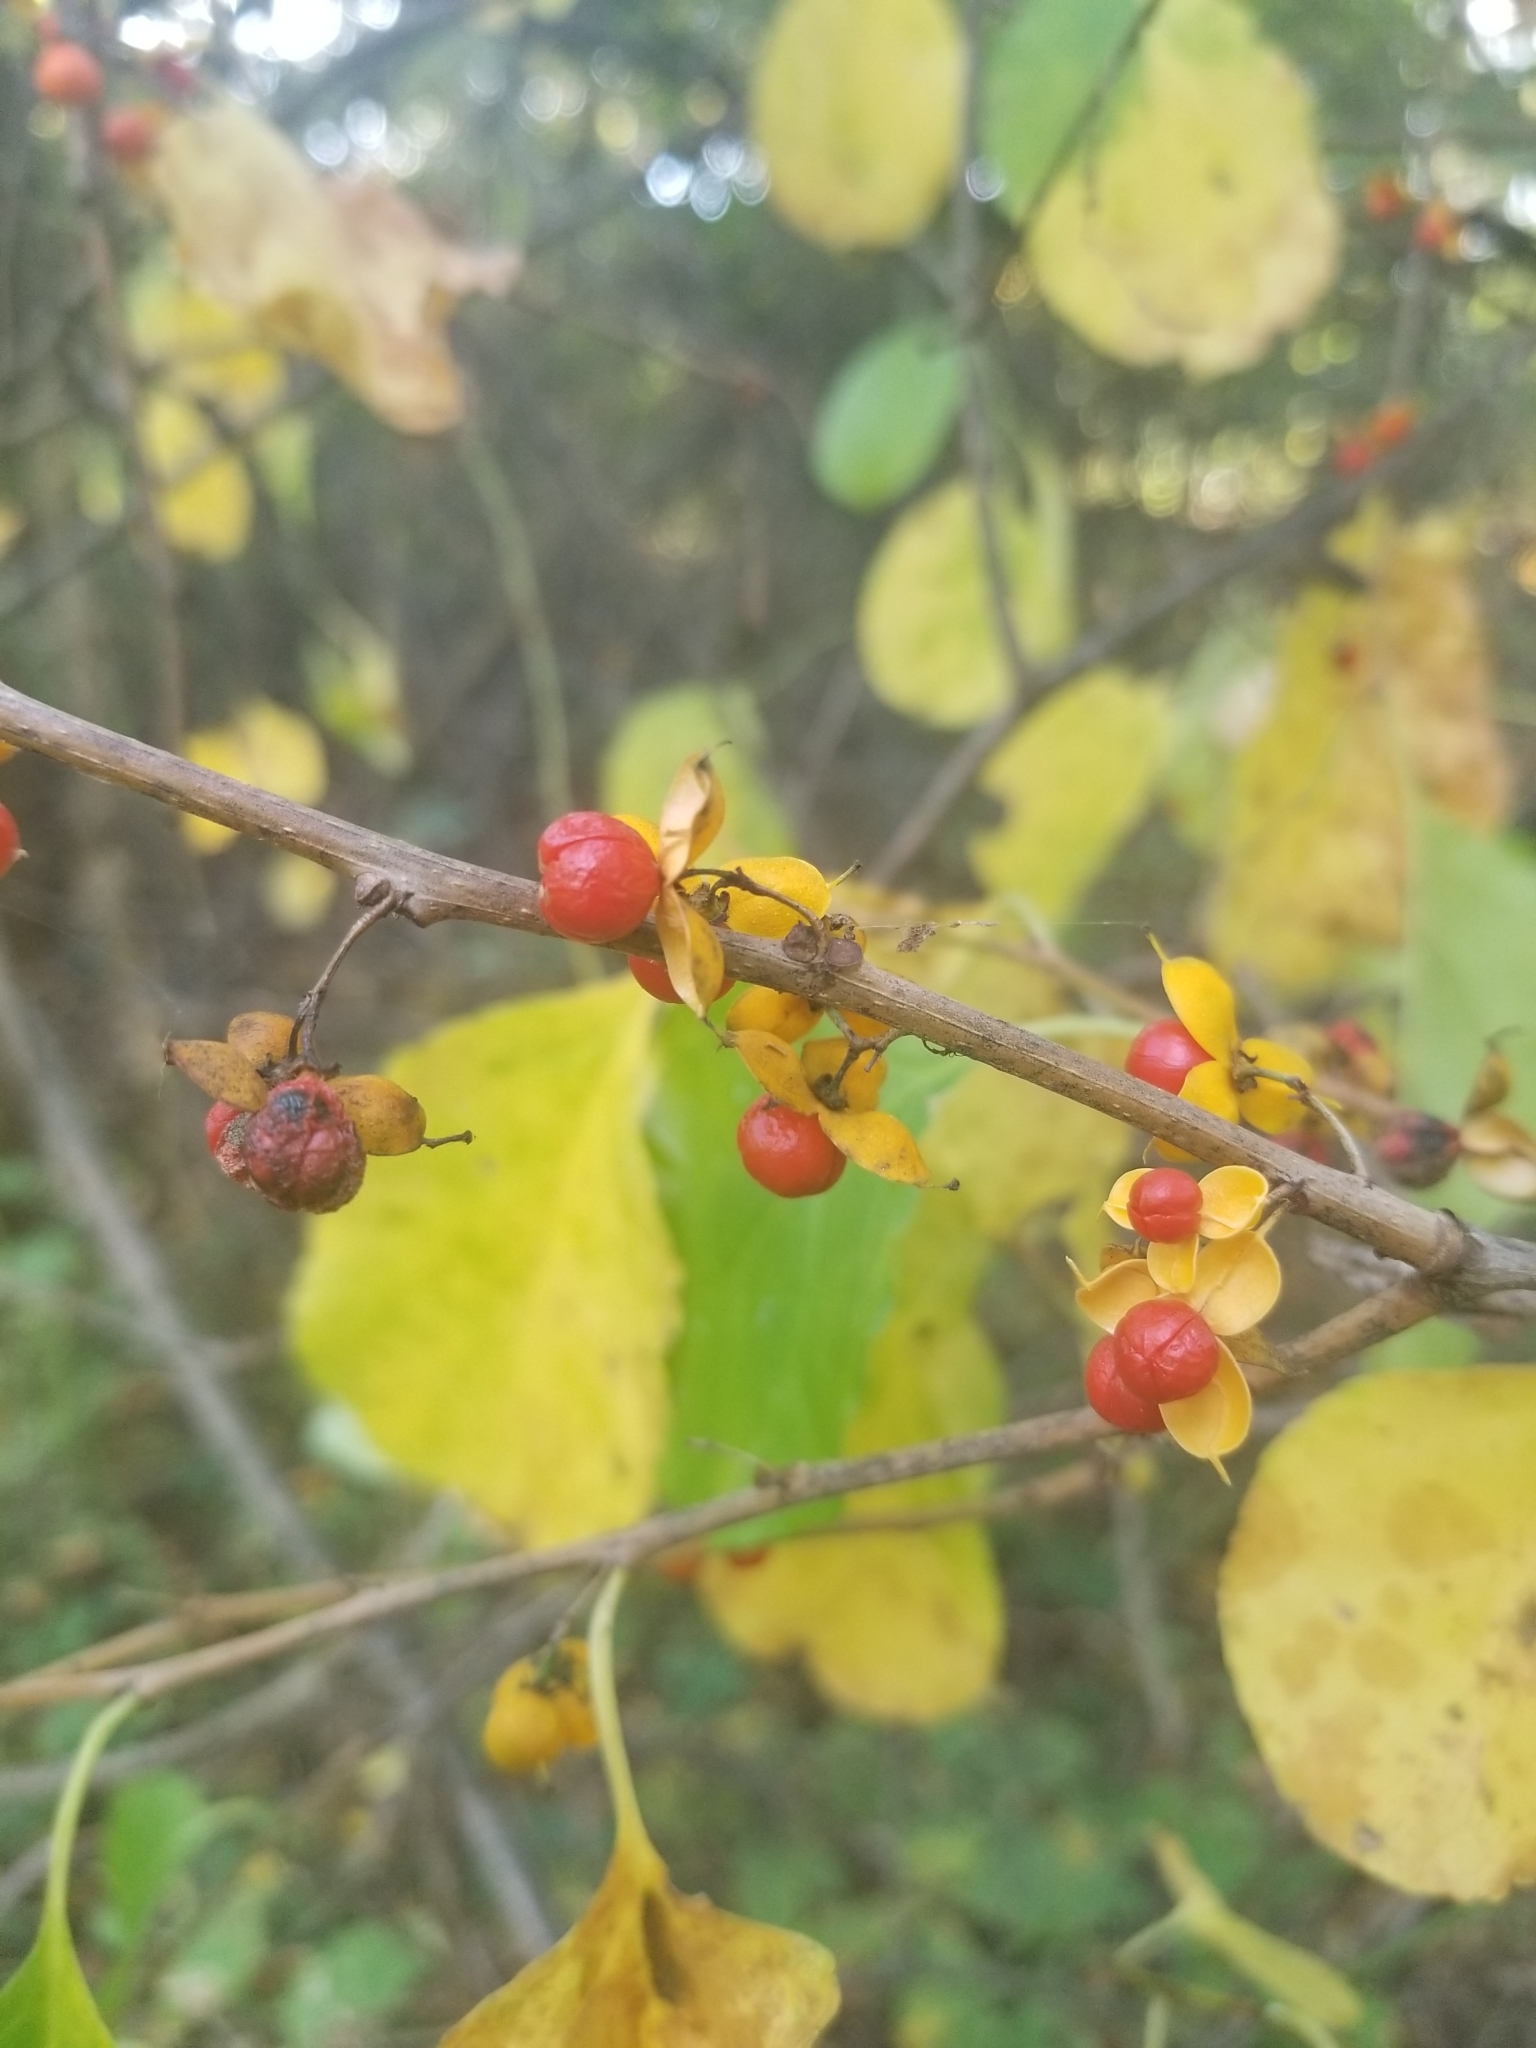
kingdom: Plantae
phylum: Tracheophyta
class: Magnoliopsida
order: Celastrales
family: Celastraceae
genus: Celastrus
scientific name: Celastrus orbiculatus
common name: Oriental bittersweet
